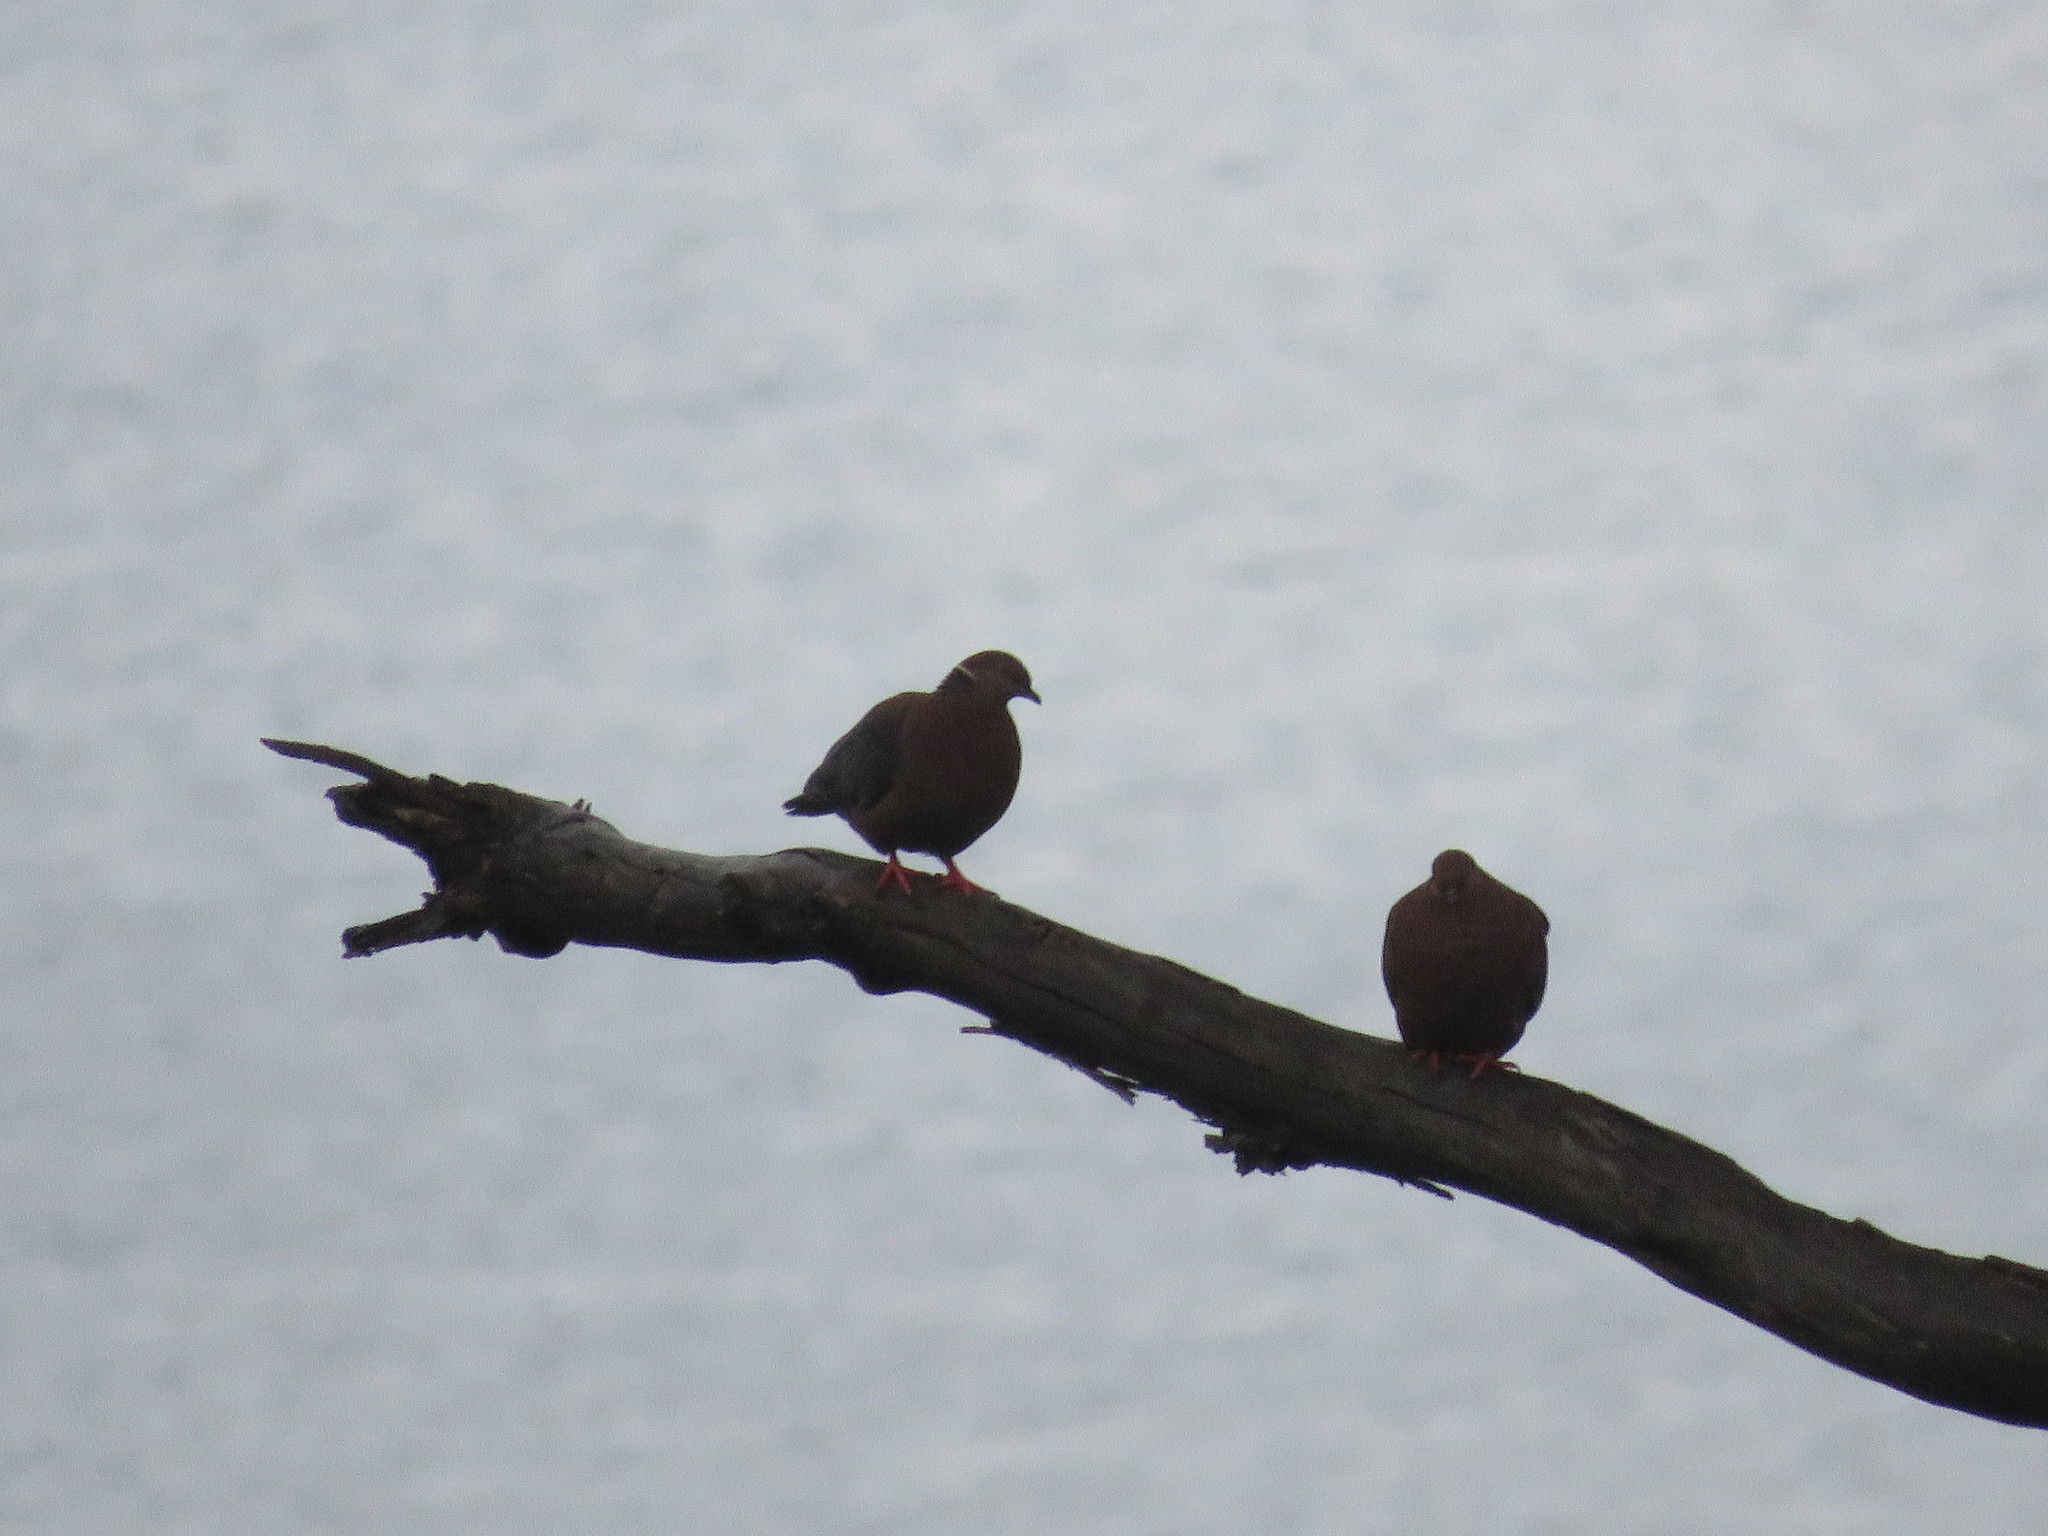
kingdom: Animalia
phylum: Chordata
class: Aves
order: Columbiformes
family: Columbidae
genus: Patagioenas
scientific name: Patagioenas araucana
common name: Chilean pigeon
